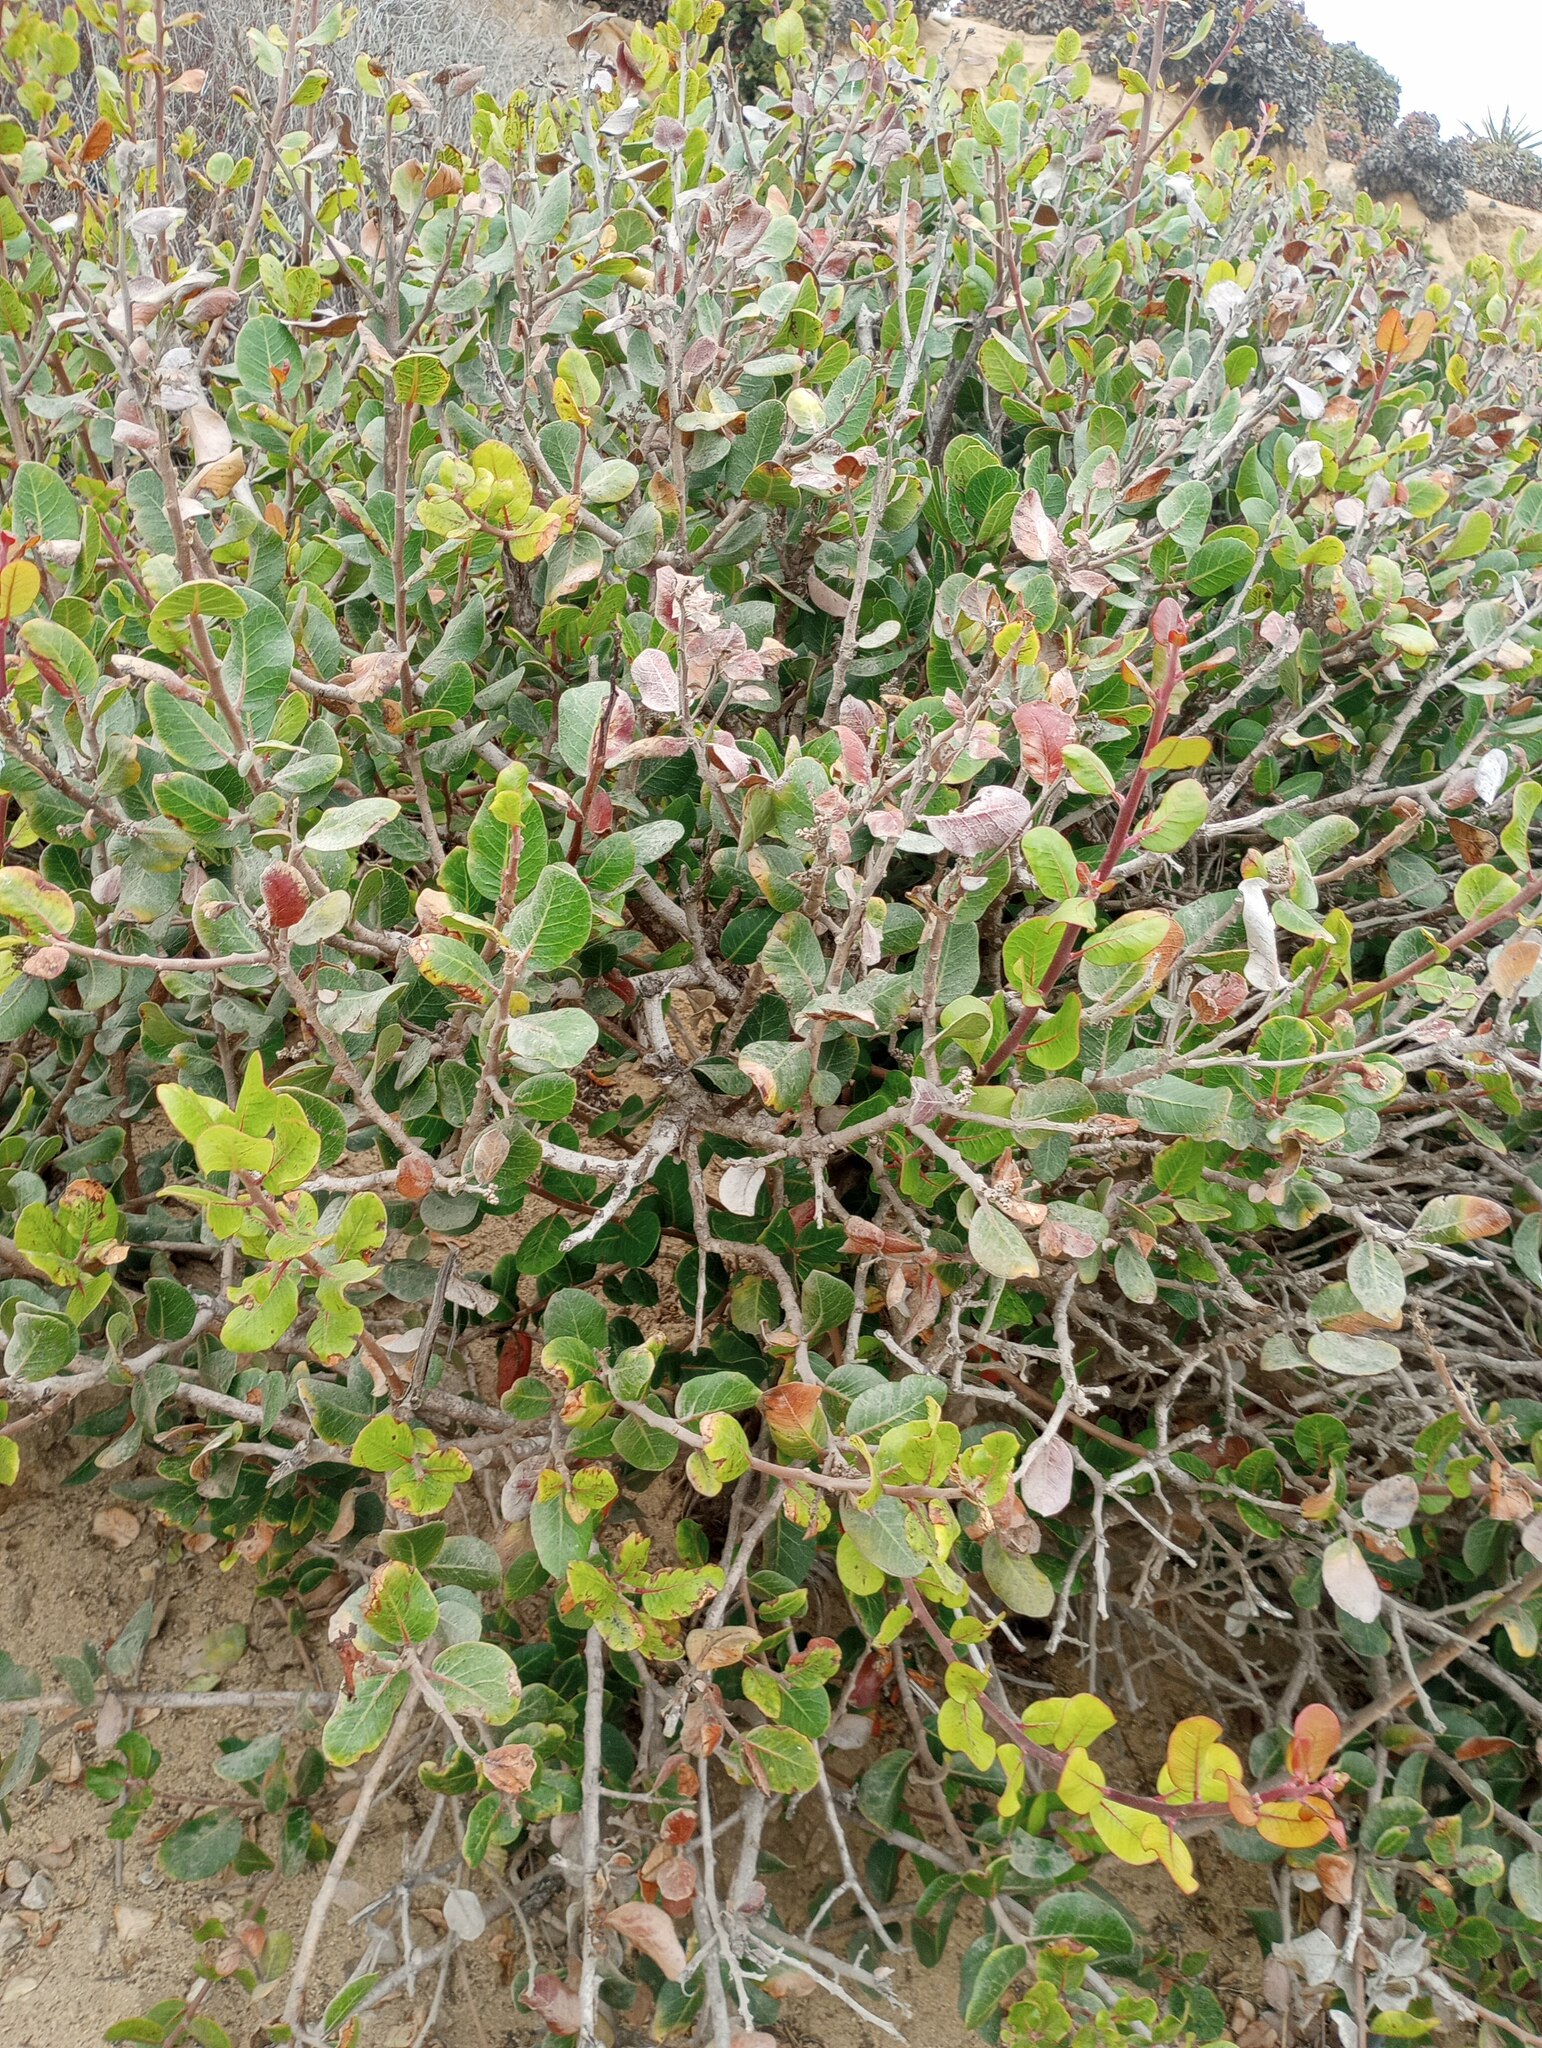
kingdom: Plantae
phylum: Tracheophyta
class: Magnoliopsida
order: Sapindales
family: Anacardiaceae
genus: Rhus
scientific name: Rhus integrifolia
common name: Lemonade sumac
